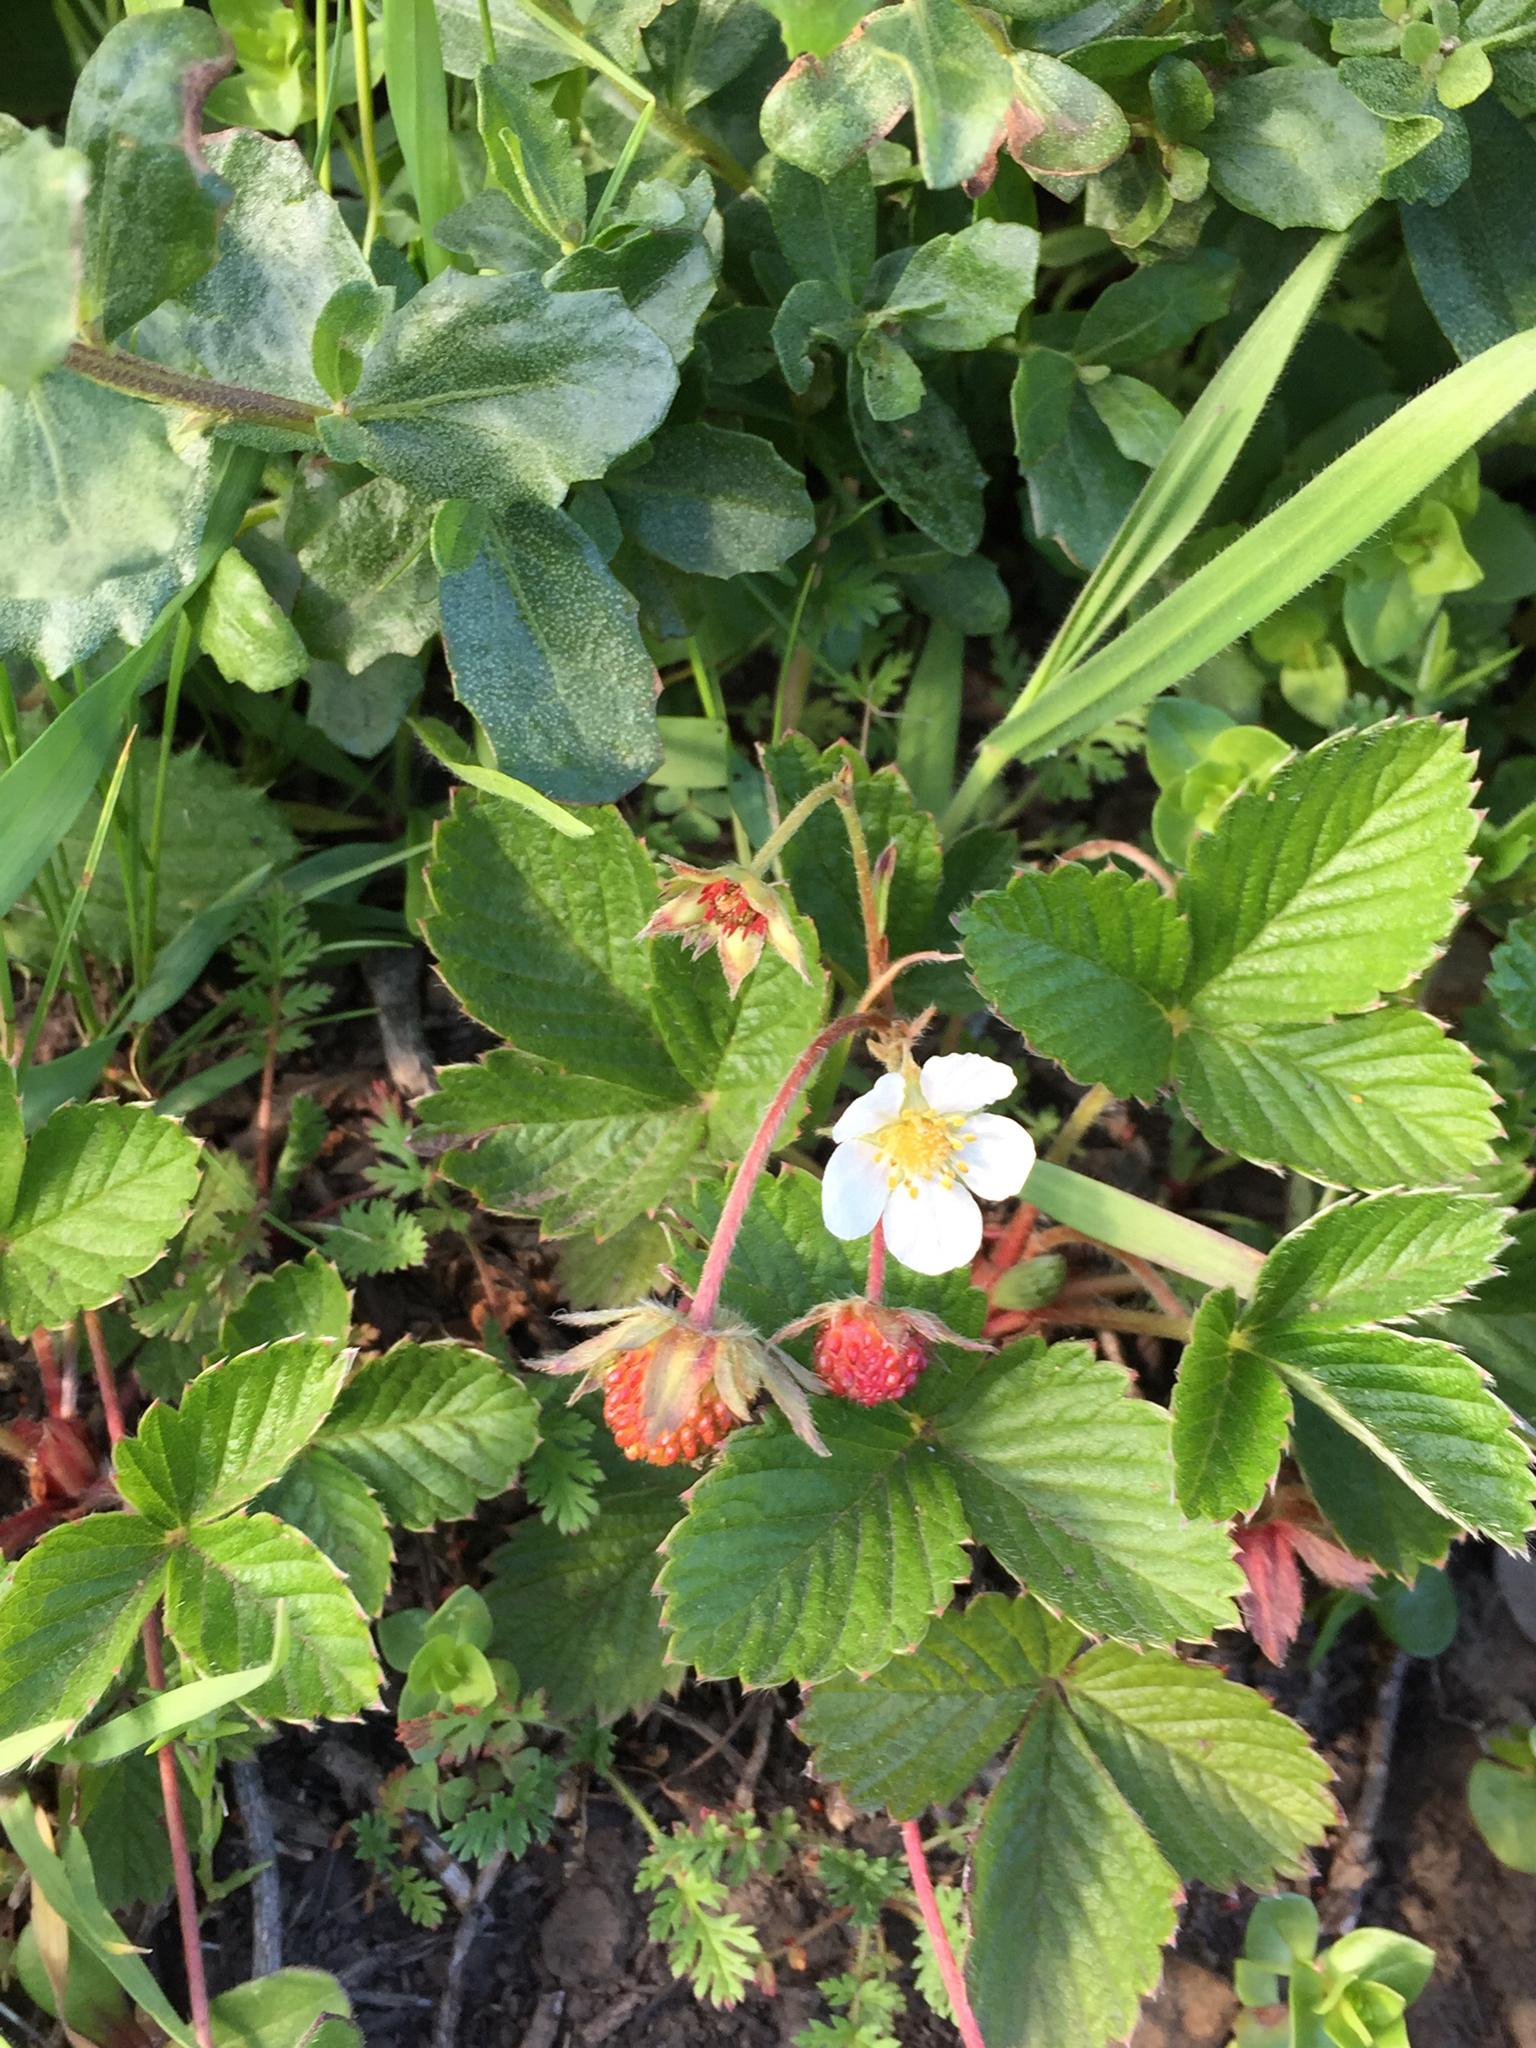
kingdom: Plantae
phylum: Tracheophyta
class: Magnoliopsida
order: Rosales
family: Rosaceae
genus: Fragaria
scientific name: Fragaria vesca
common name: Wild strawberry
